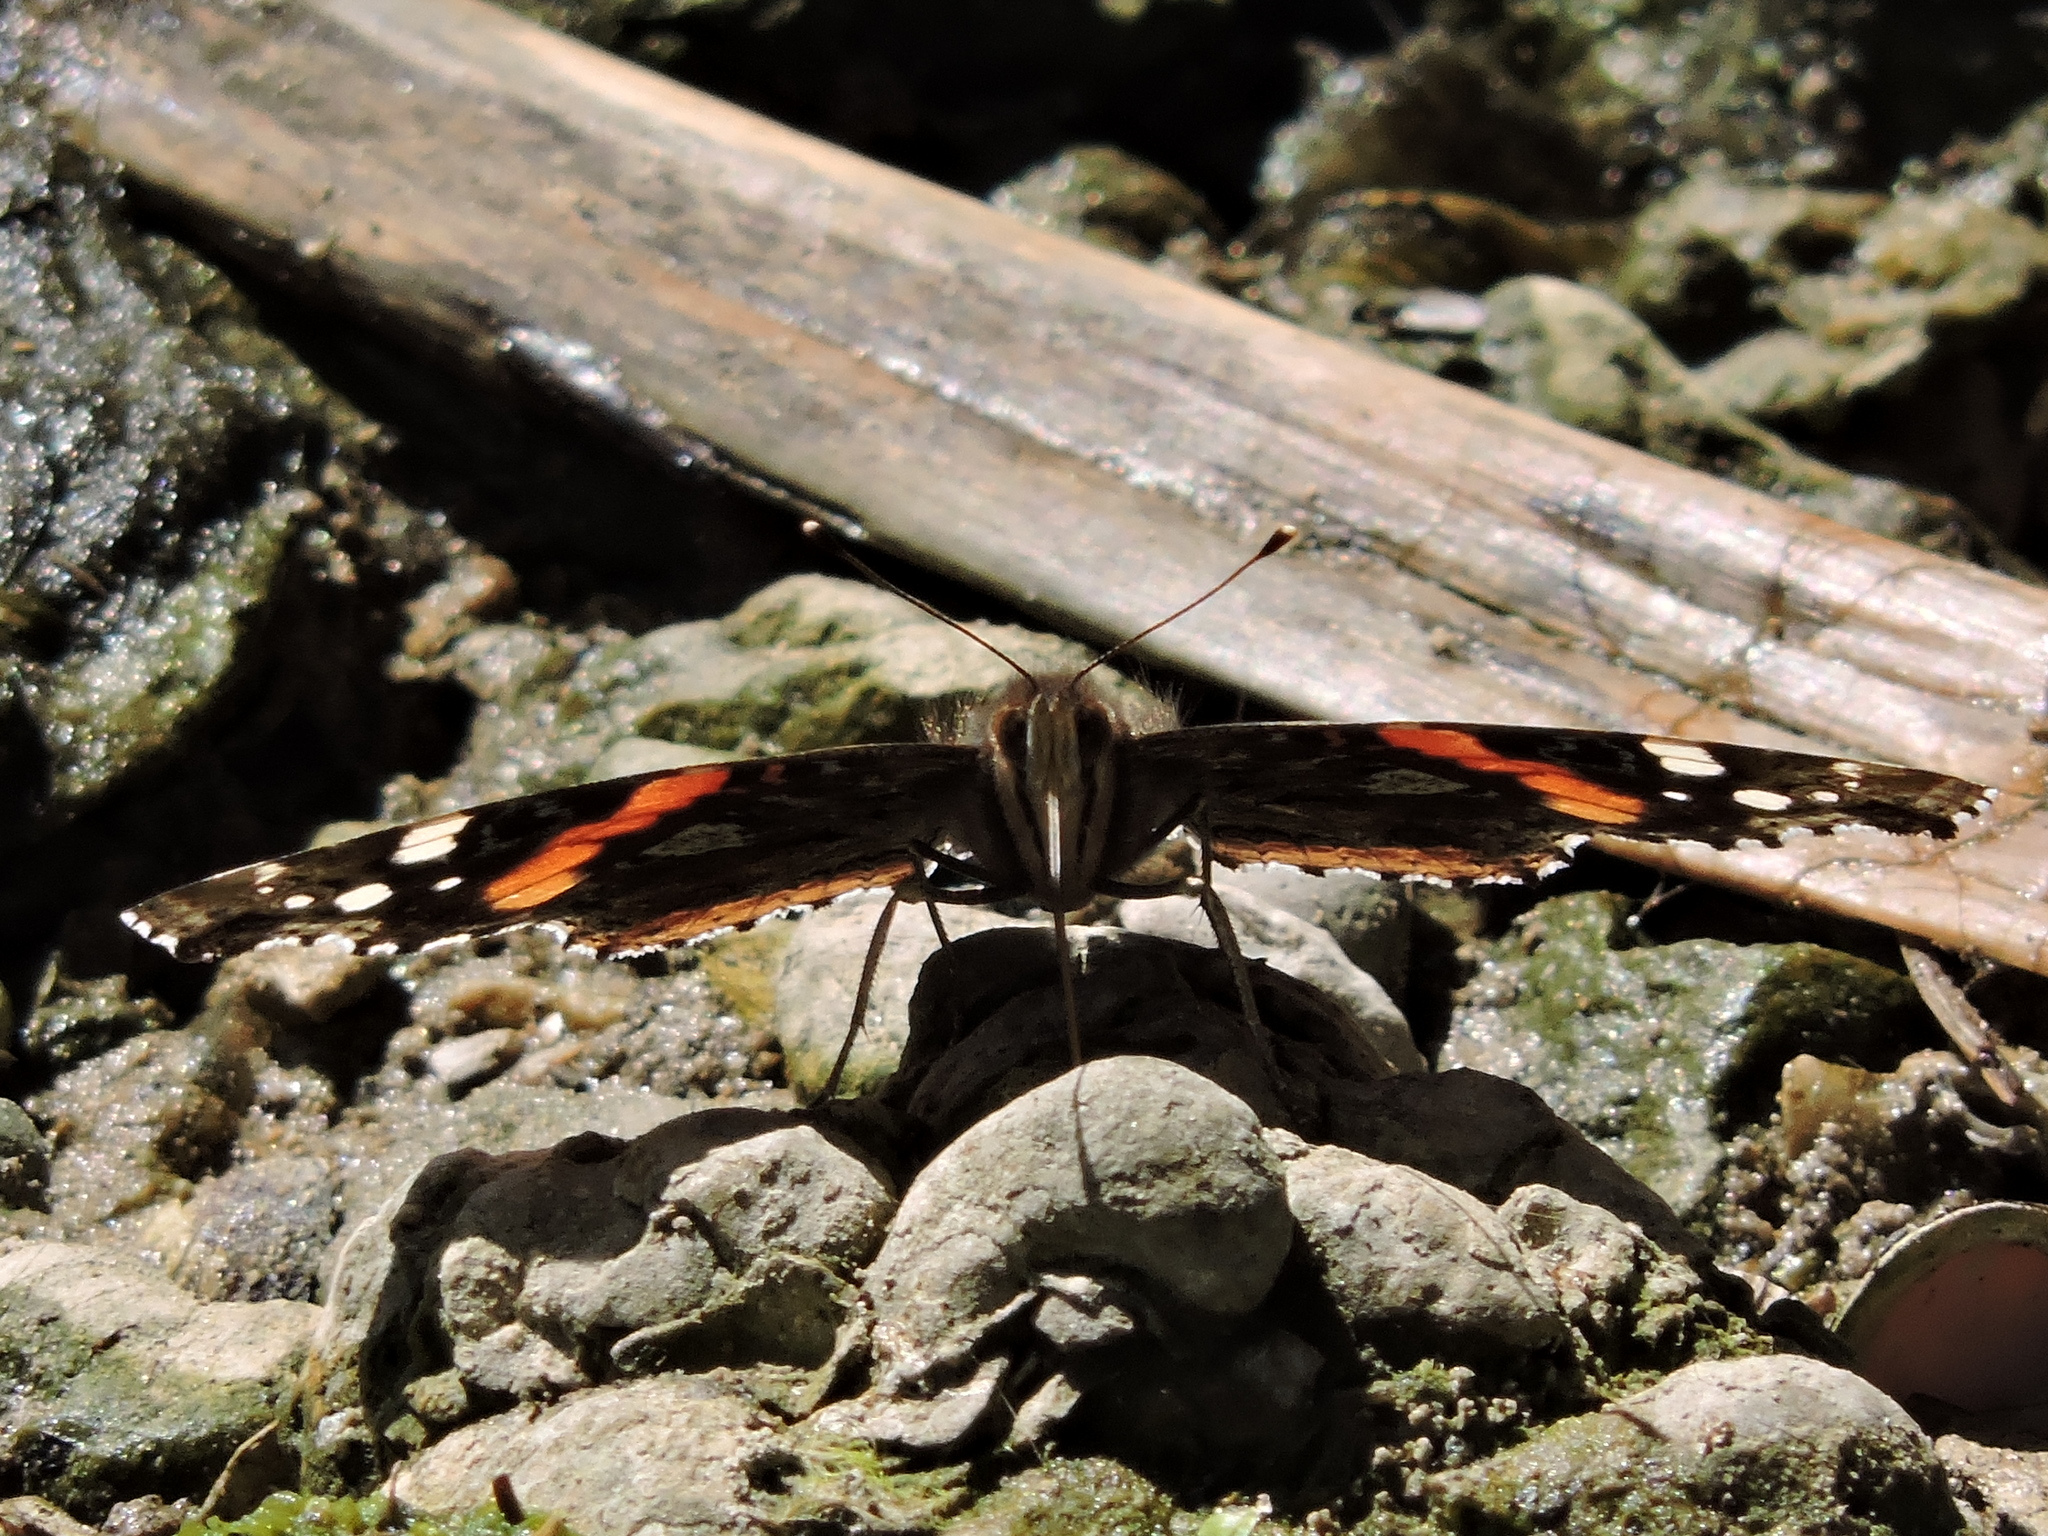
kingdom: Animalia
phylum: Arthropoda
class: Insecta
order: Lepidoptera
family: Nymphalidae
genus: Vanessa
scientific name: Vanessa atalanta
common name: Red admiral
